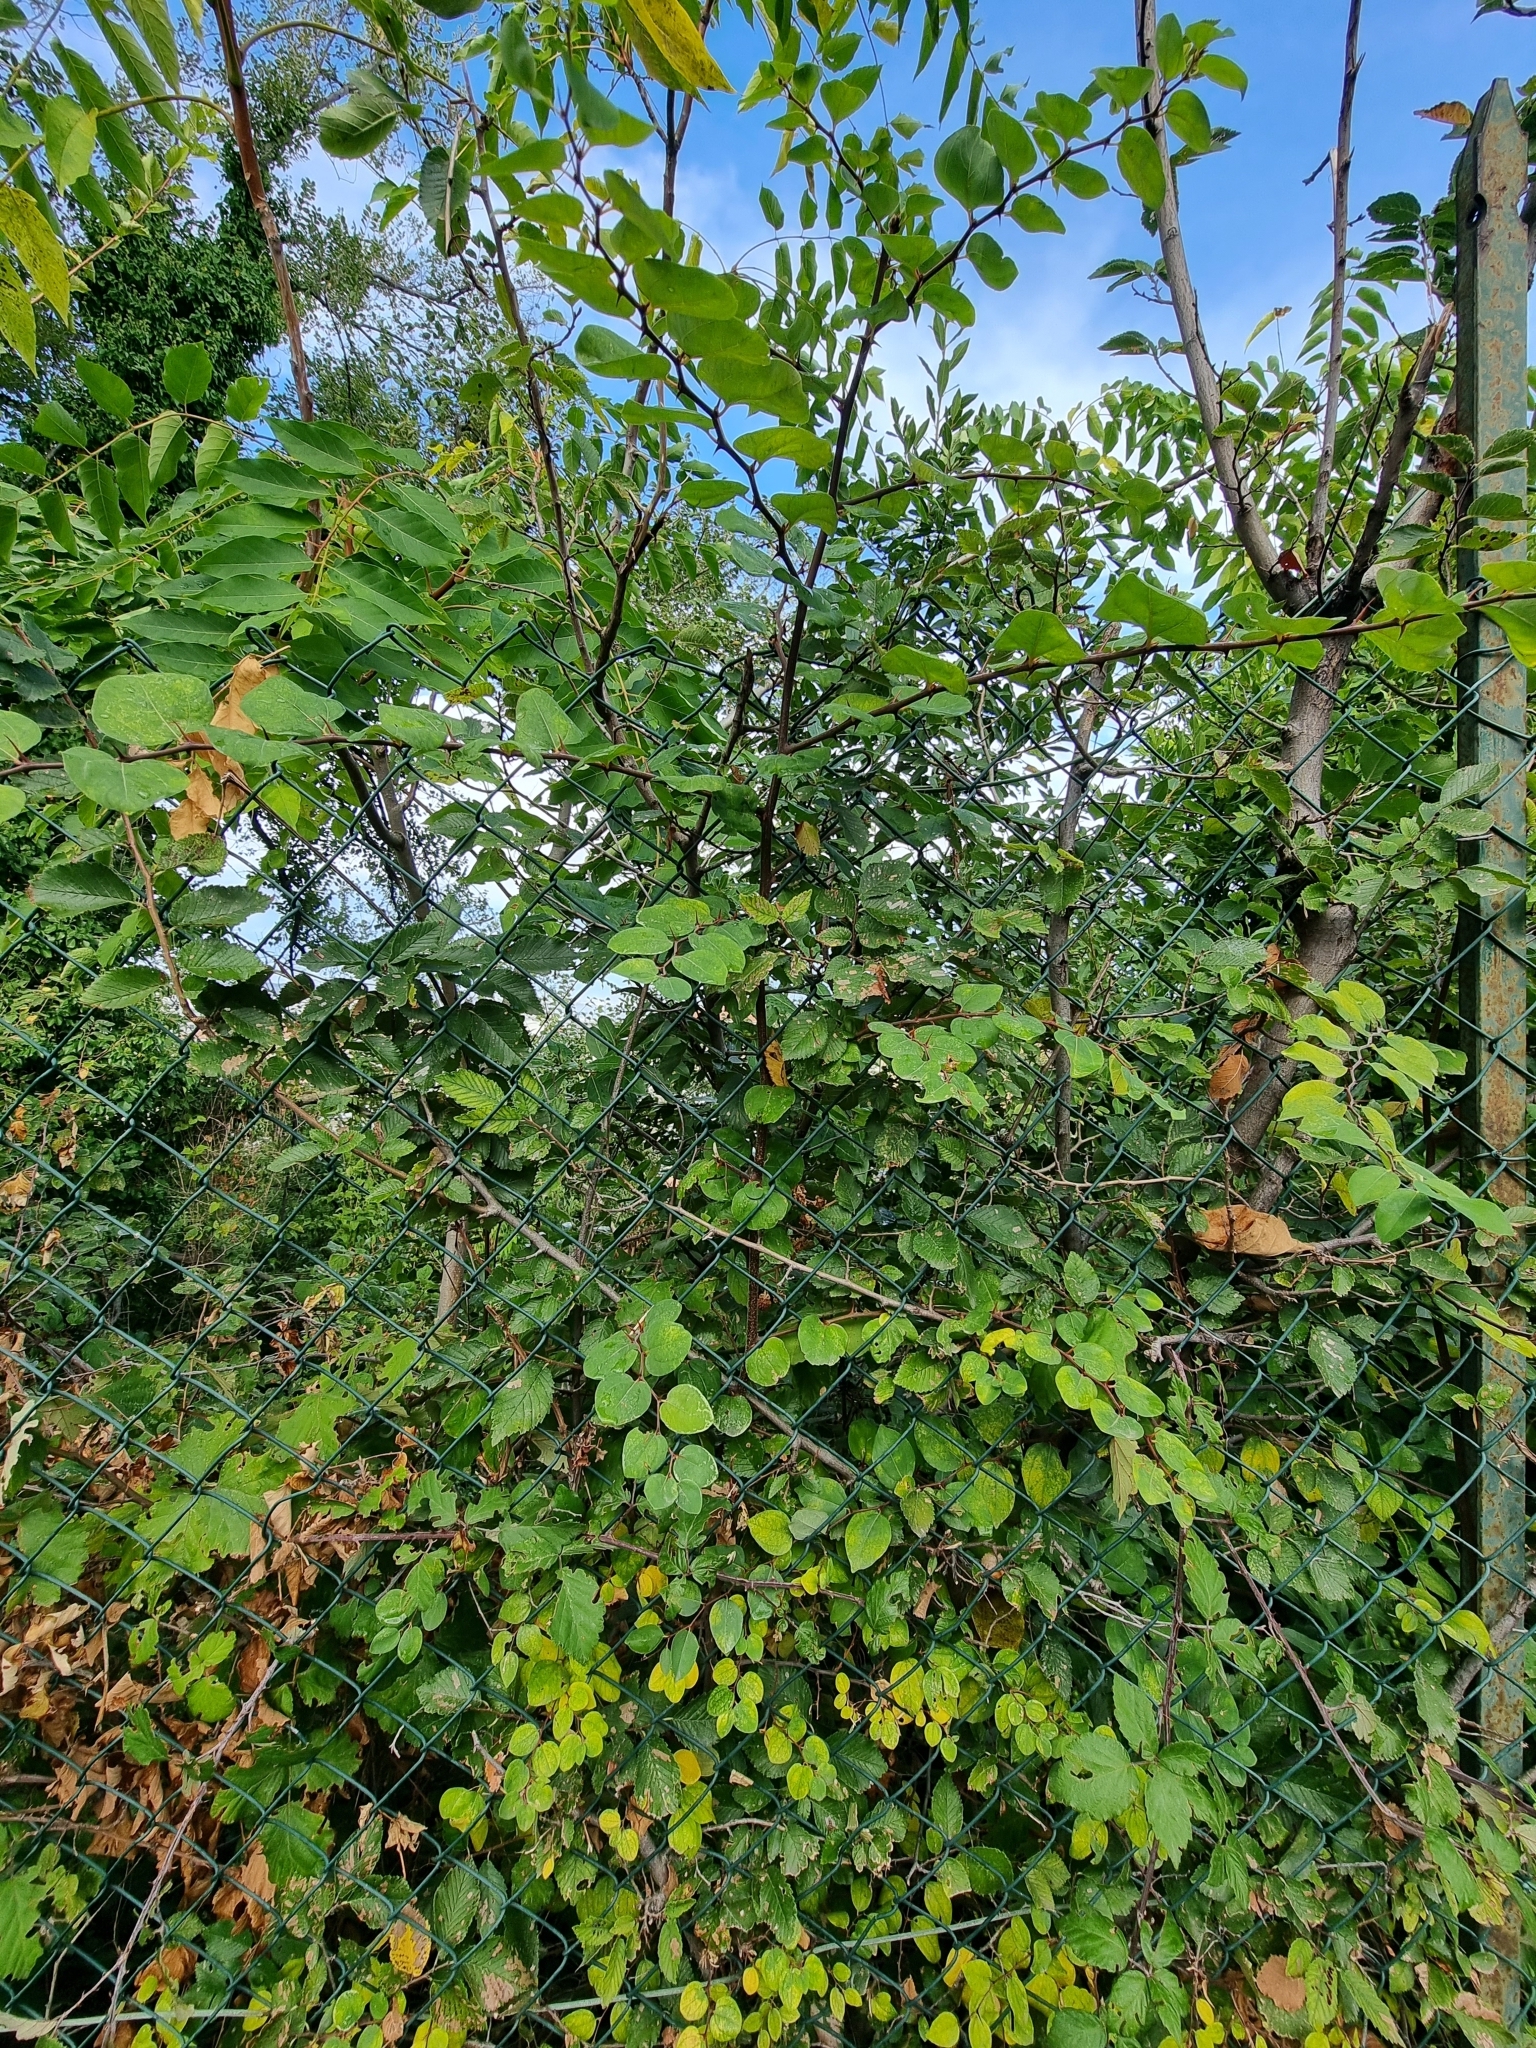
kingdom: Plantae
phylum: Tracheophyta
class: Magnoliopsida
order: Rosales
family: Rhamnaceae
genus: Paliurus
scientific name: Paliurus spina-christi
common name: Jeruselem thorn
